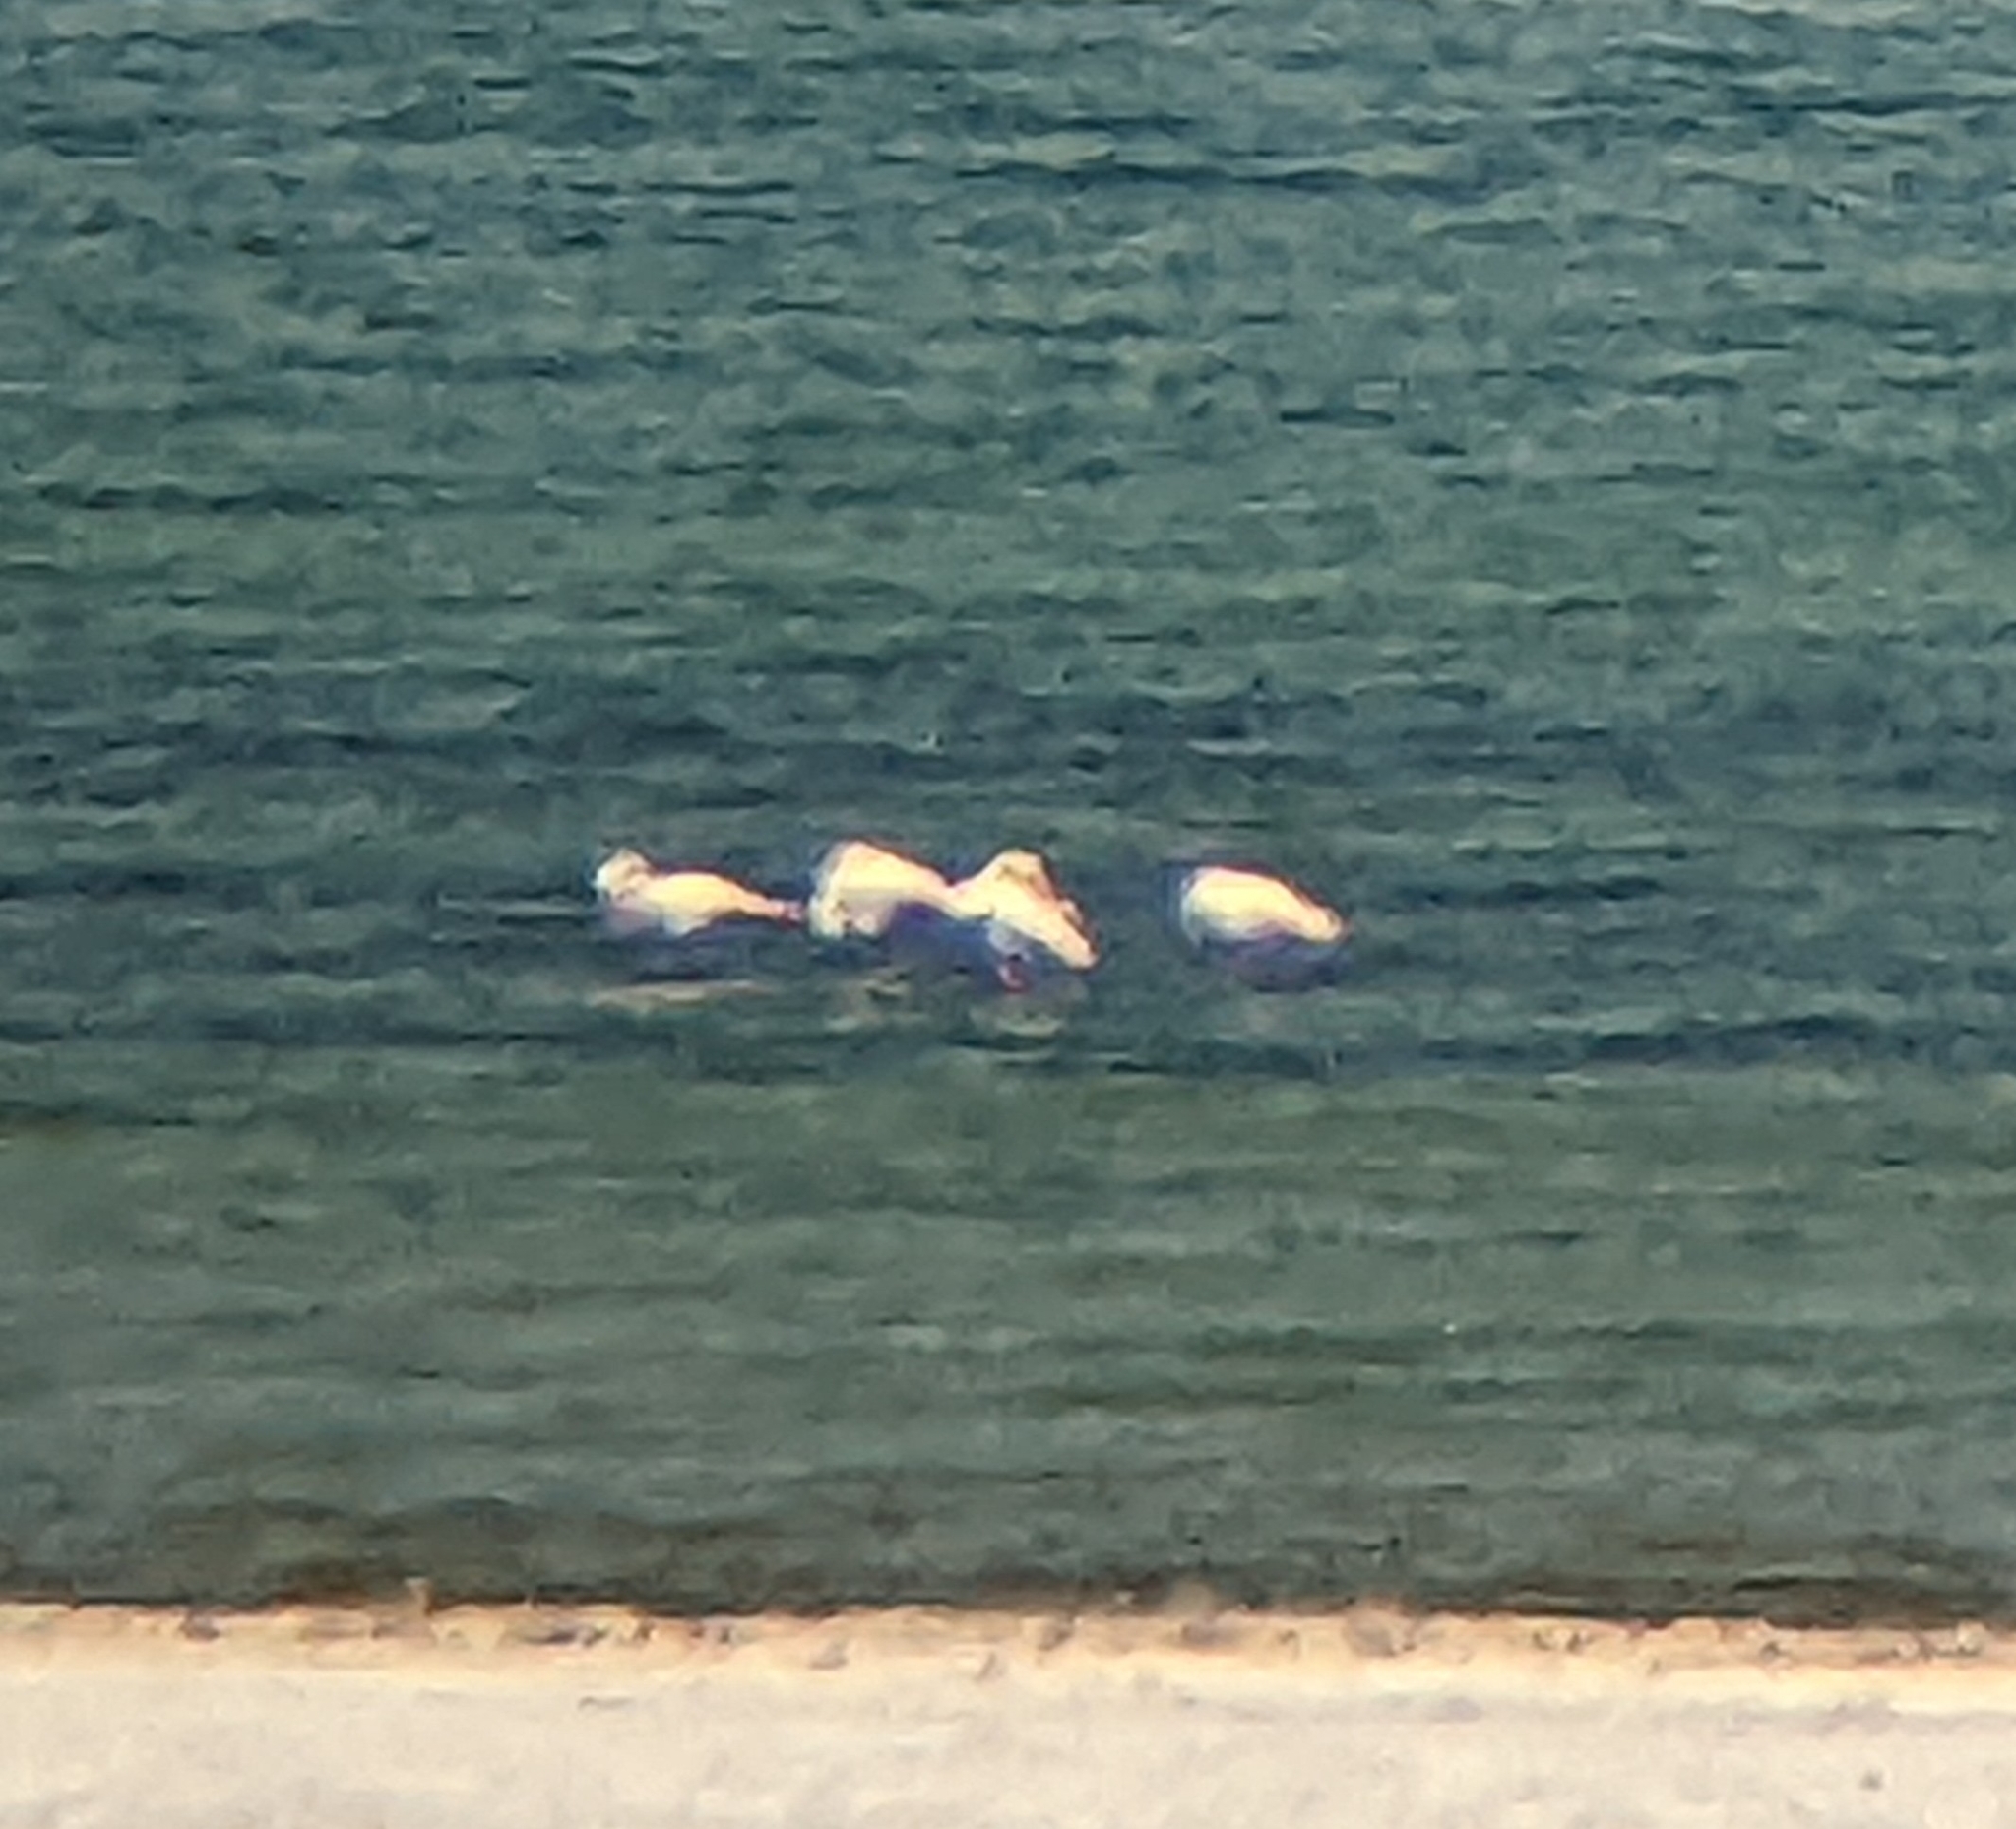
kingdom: Animalia
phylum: Chordata
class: Aves
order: Phoenicopteriformes
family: Phoenicopteridae
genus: Phoenicopterus
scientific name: Phoenicopterus roseus
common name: Greater flamingo
